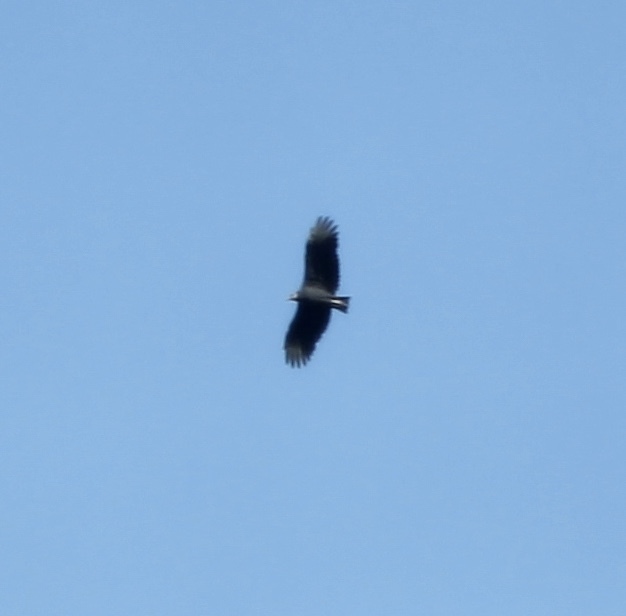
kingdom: Animalia
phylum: Chordata
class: Aves
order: Accipitriformes
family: Cathartidae
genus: Coragyps
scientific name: Coragyps atratus
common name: Black vulture
